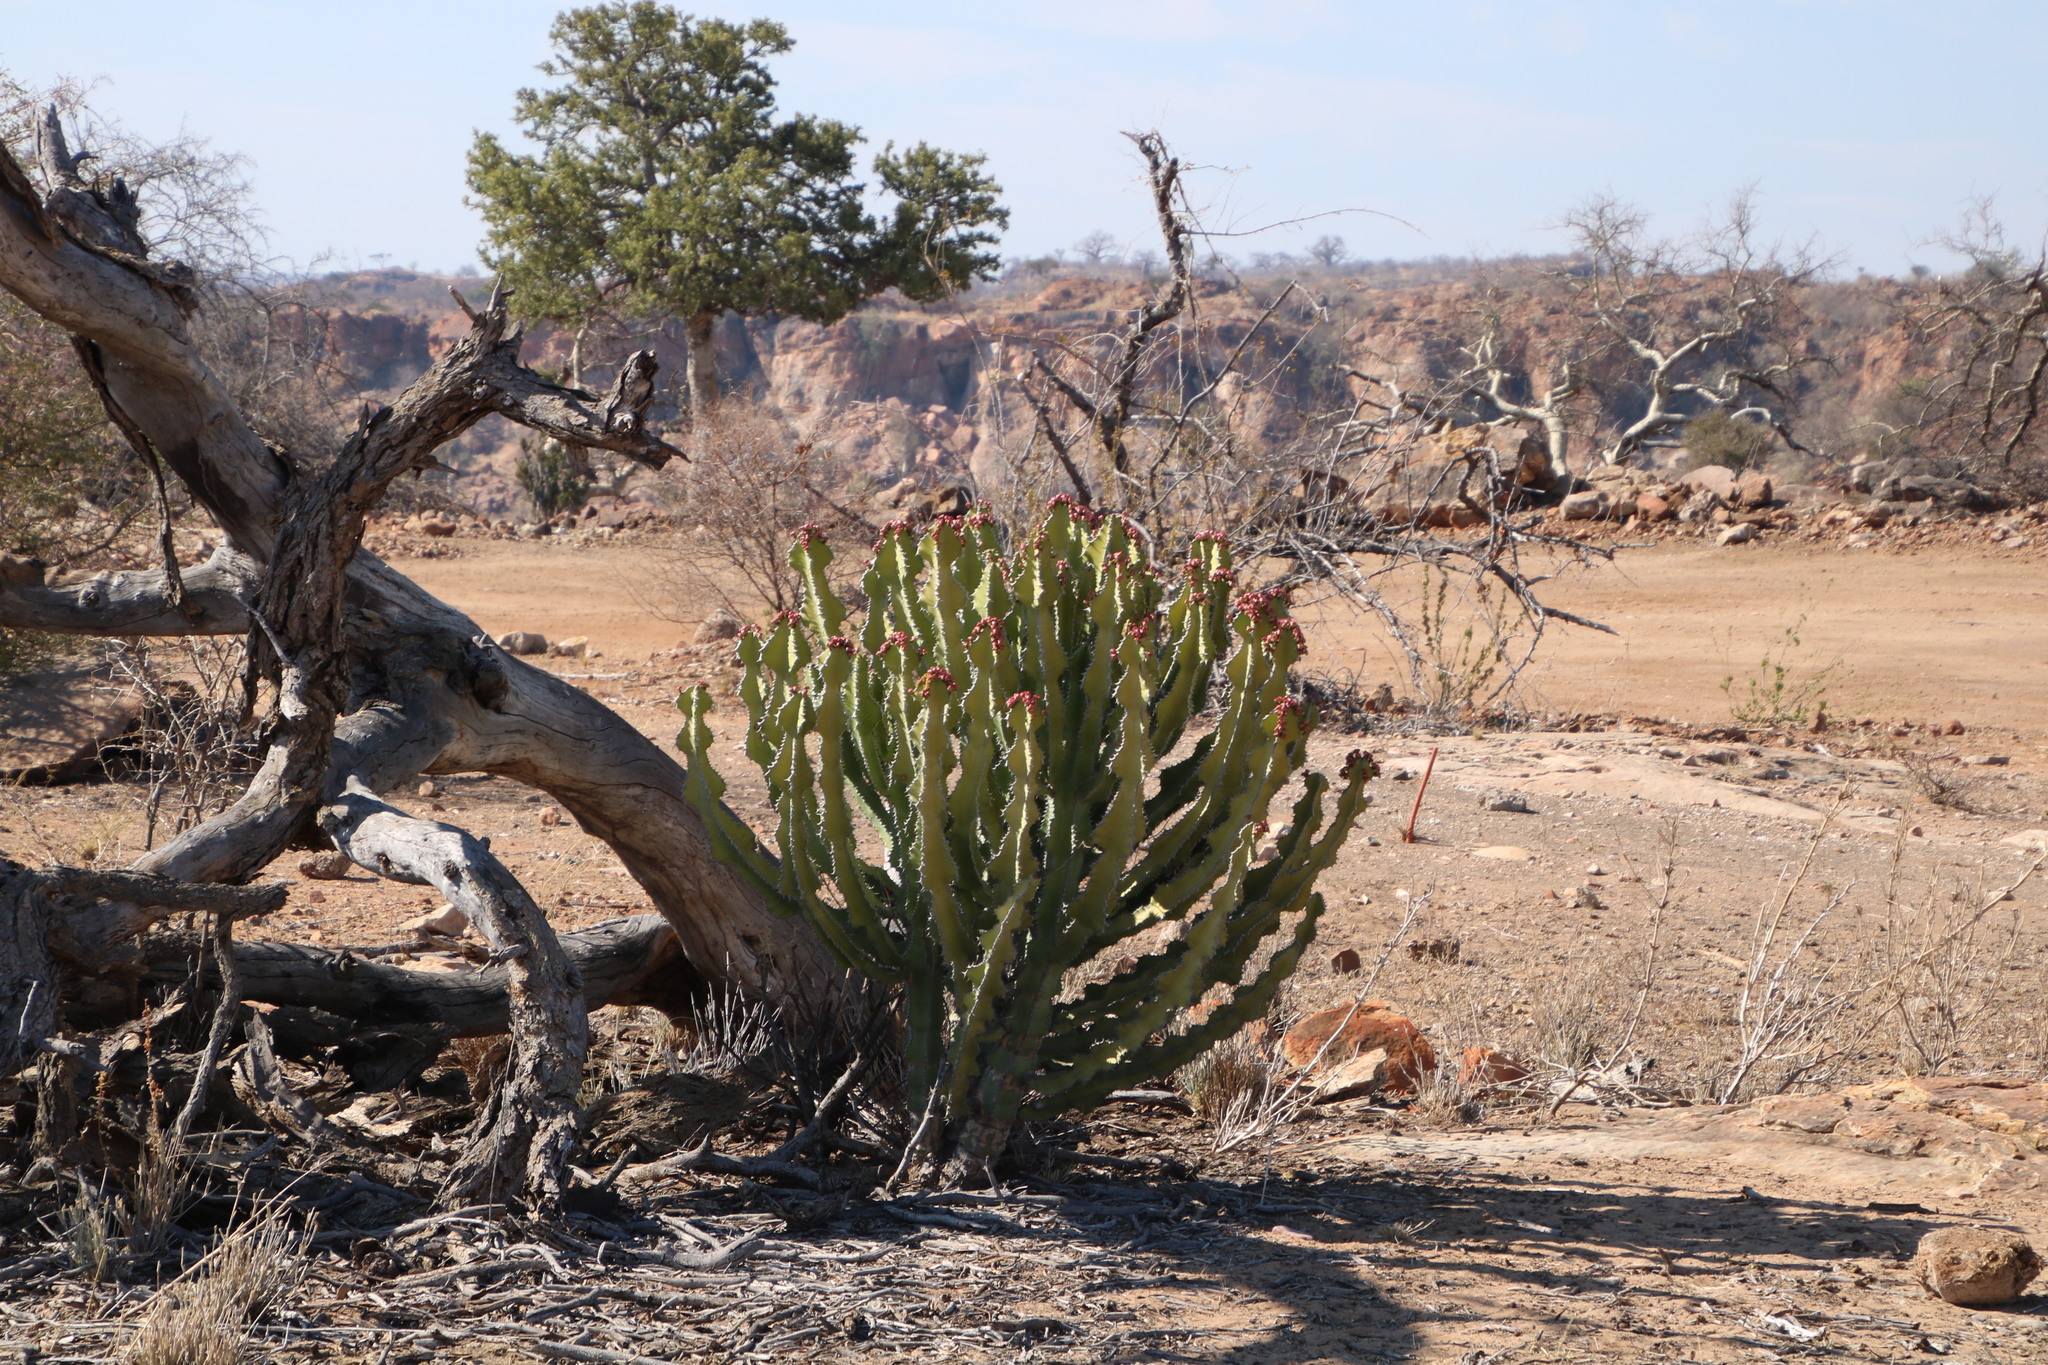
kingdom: Plantae
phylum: Tracheophyta
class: Magnoliopsida
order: Malpighiales
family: Euphorbiaceae
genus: Euphorbia
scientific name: Euphorbia cooperi
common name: Candelabra tree
